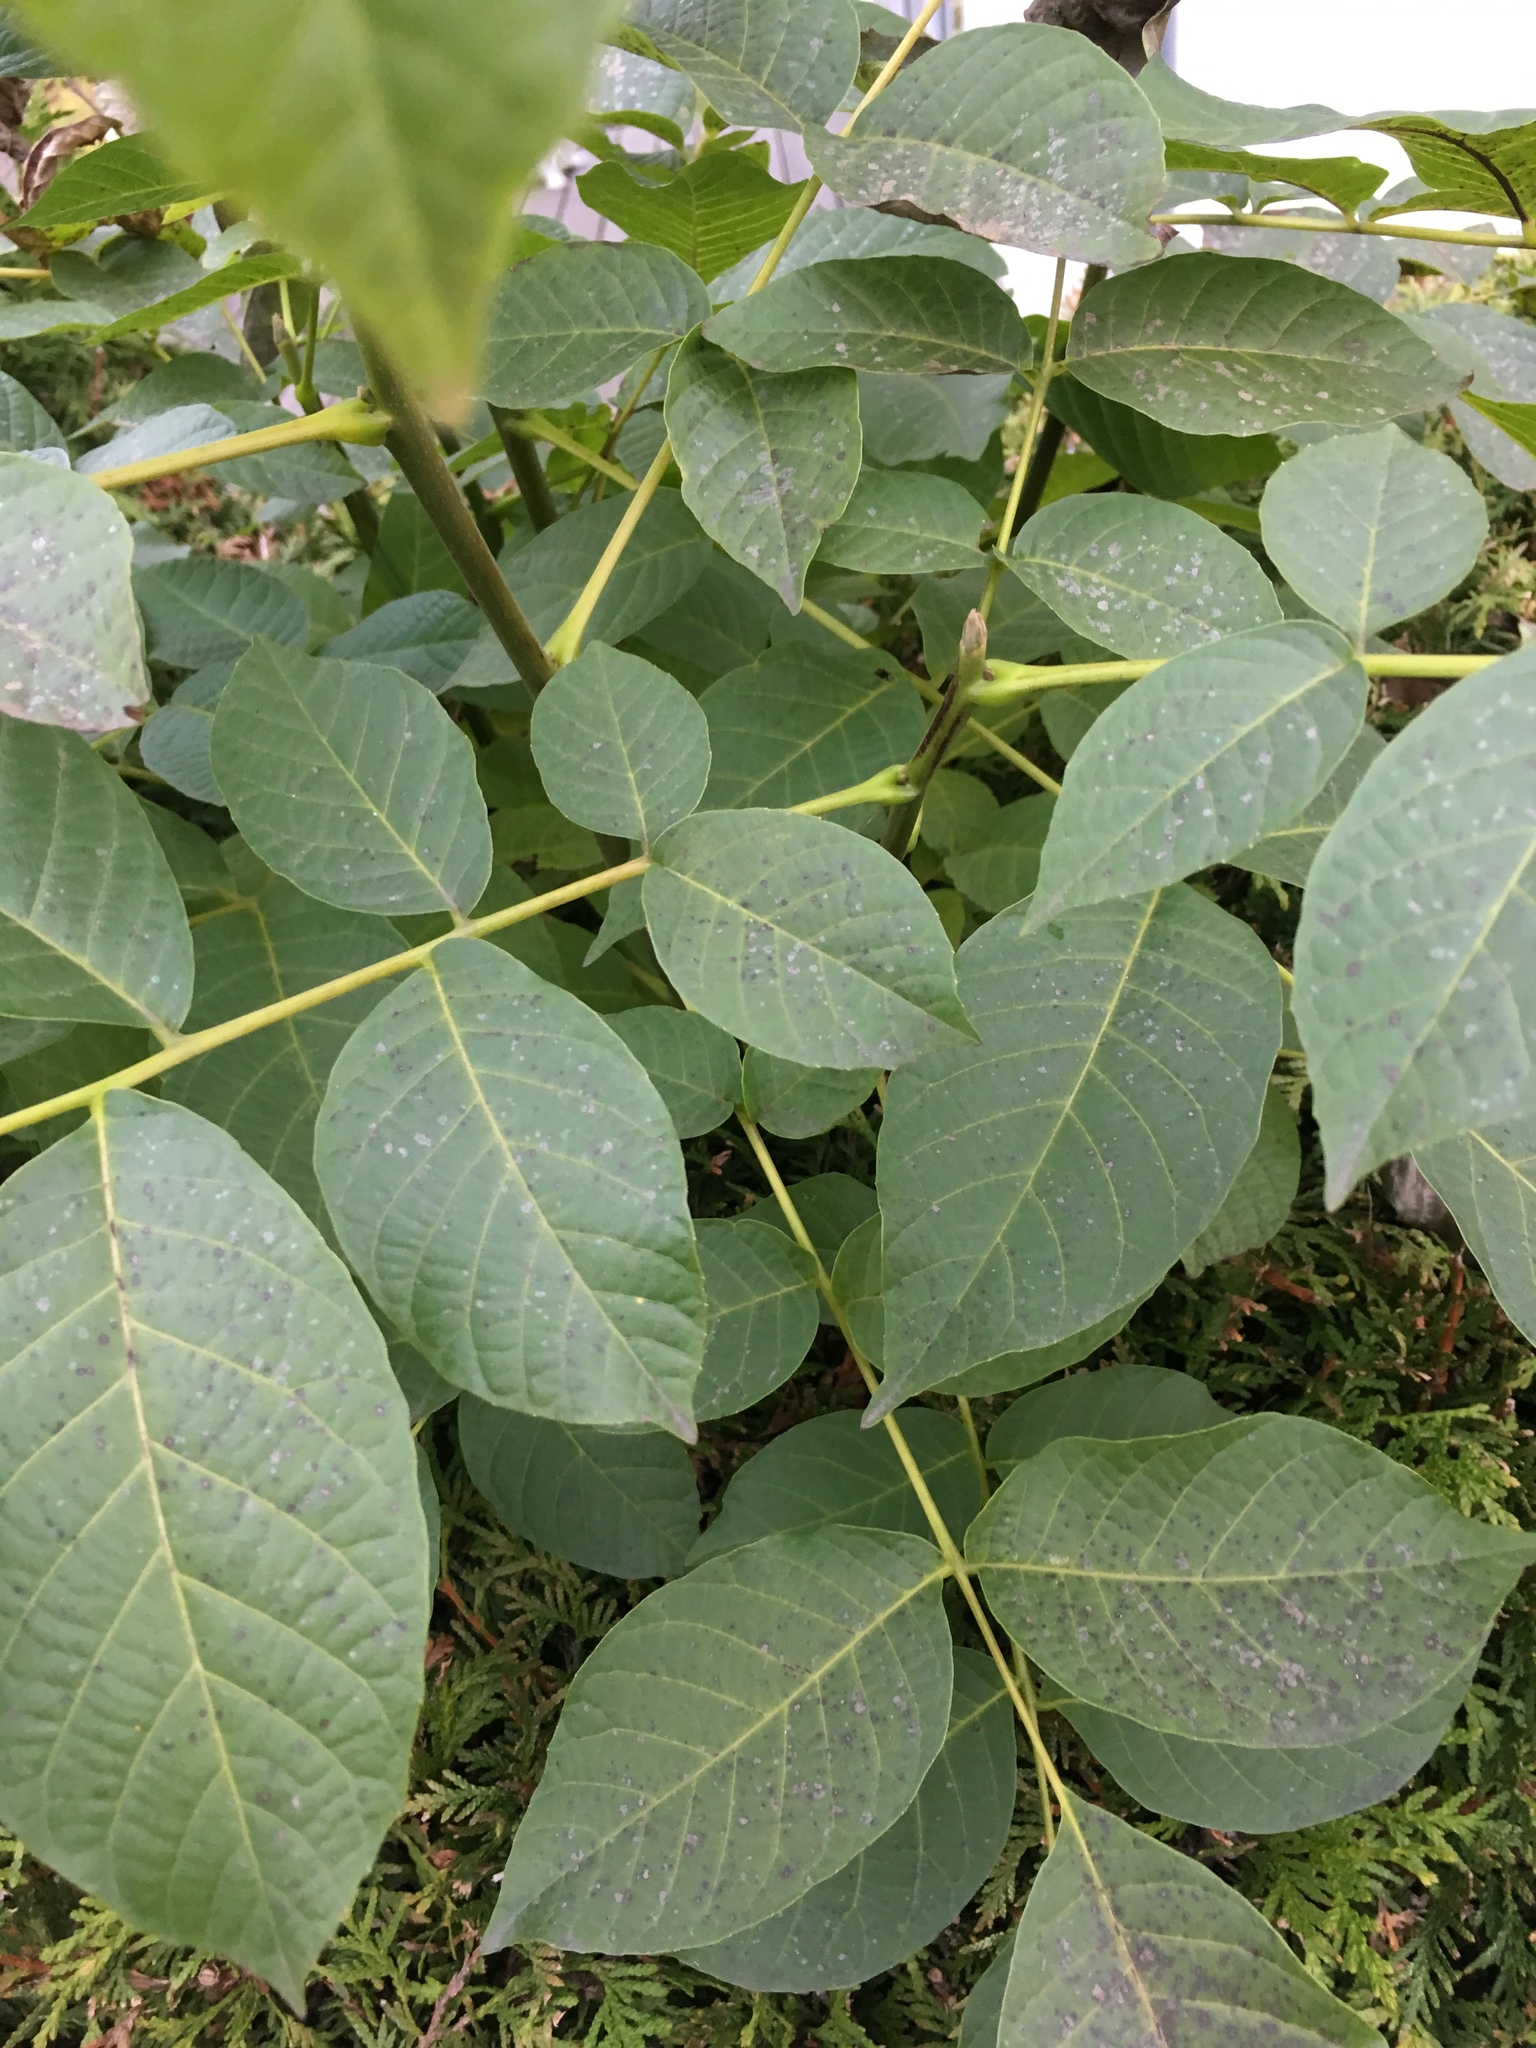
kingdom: Plantae
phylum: Tracheophyta
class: Magnoliopsida
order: Fagales
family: Juglandaceae
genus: Juglans
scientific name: Juglans regia
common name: Walnut
